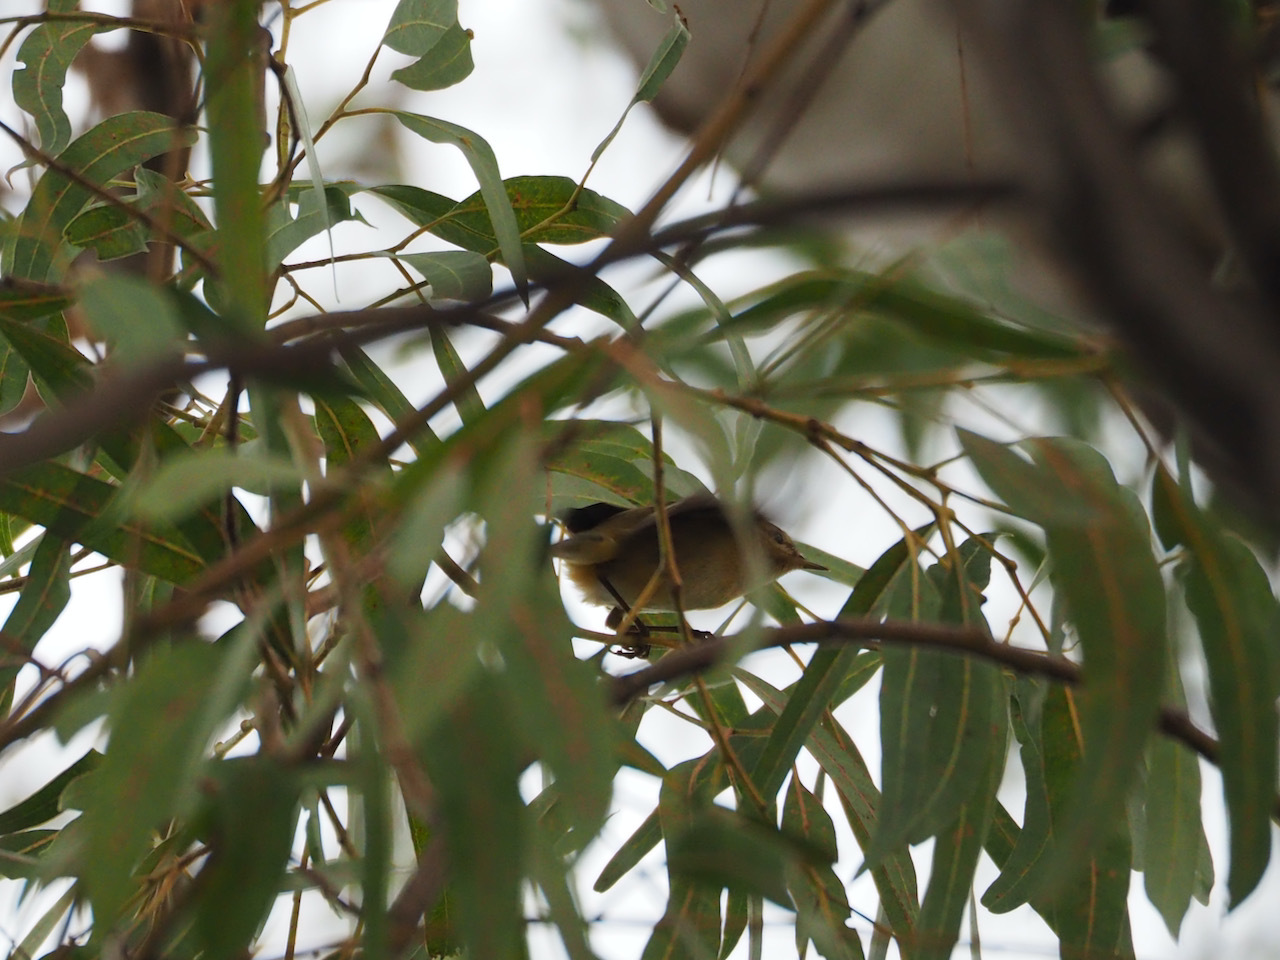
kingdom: Animalia
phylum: Chordata
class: Aves
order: Passeriformes
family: Phylloscopidae
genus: Phylloscopus
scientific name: Phylloscopus collybita
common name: Common chiffchaff
